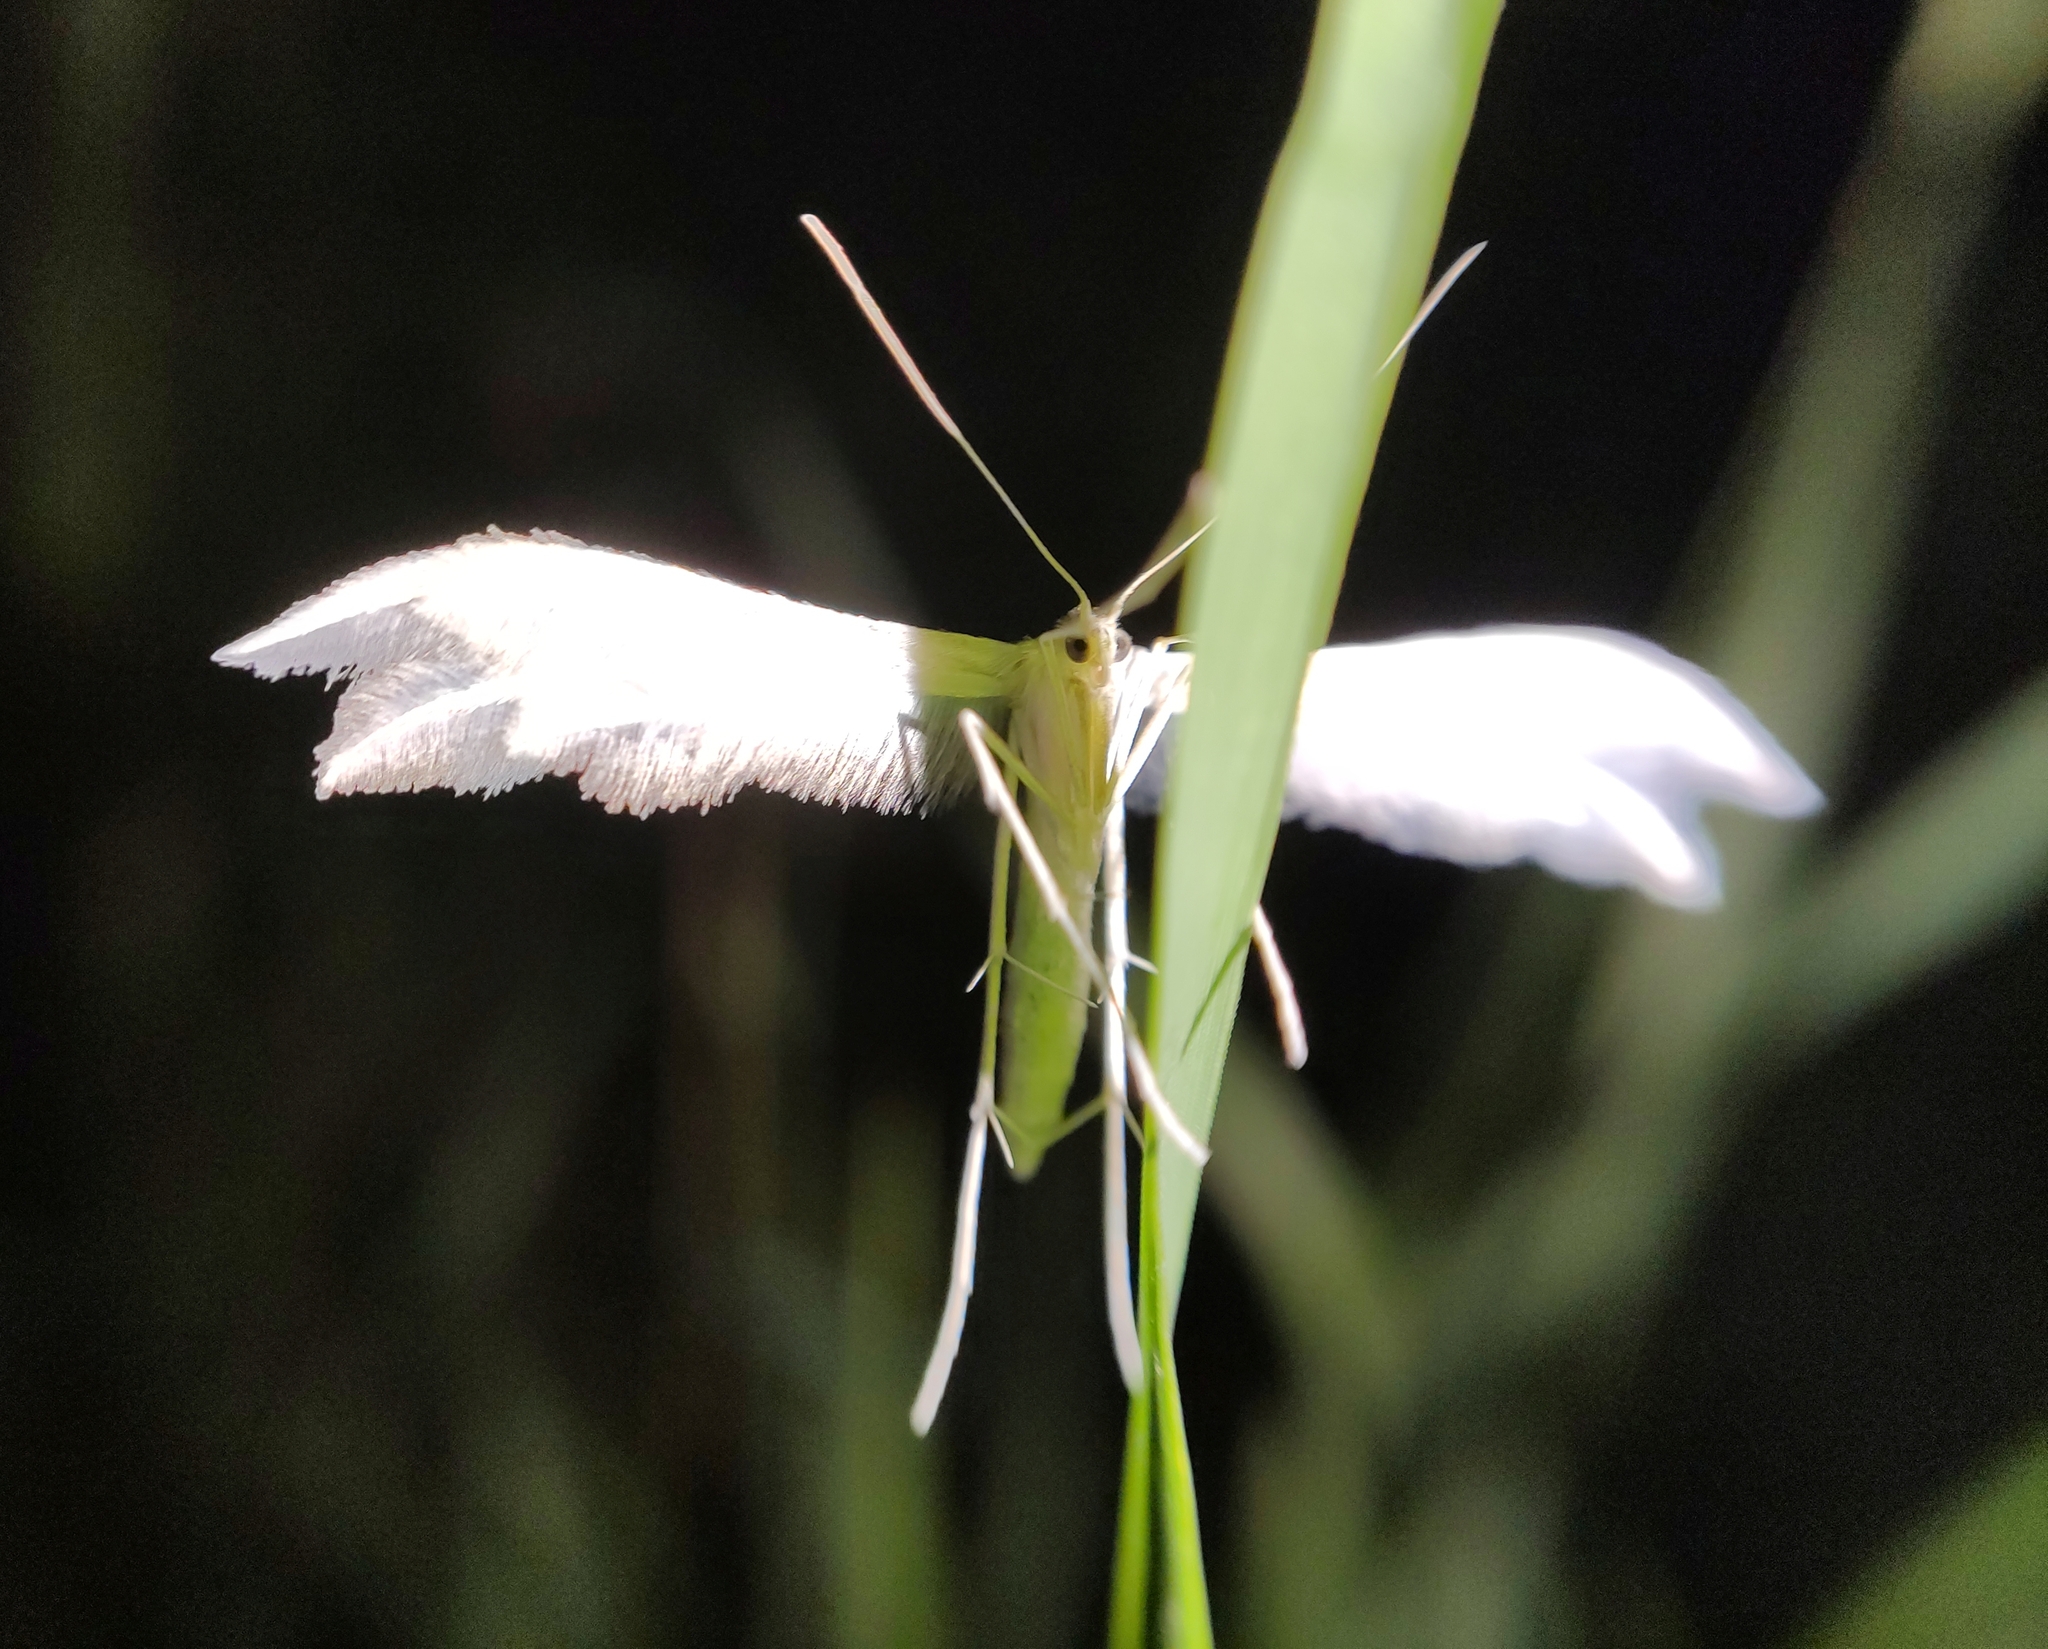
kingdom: Animalia
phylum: Arthropoda
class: Insecta
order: Lepidoptera
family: Pterophoridae
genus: Pterophorus
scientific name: Pterophorus pentadactyla
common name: White plume moth
